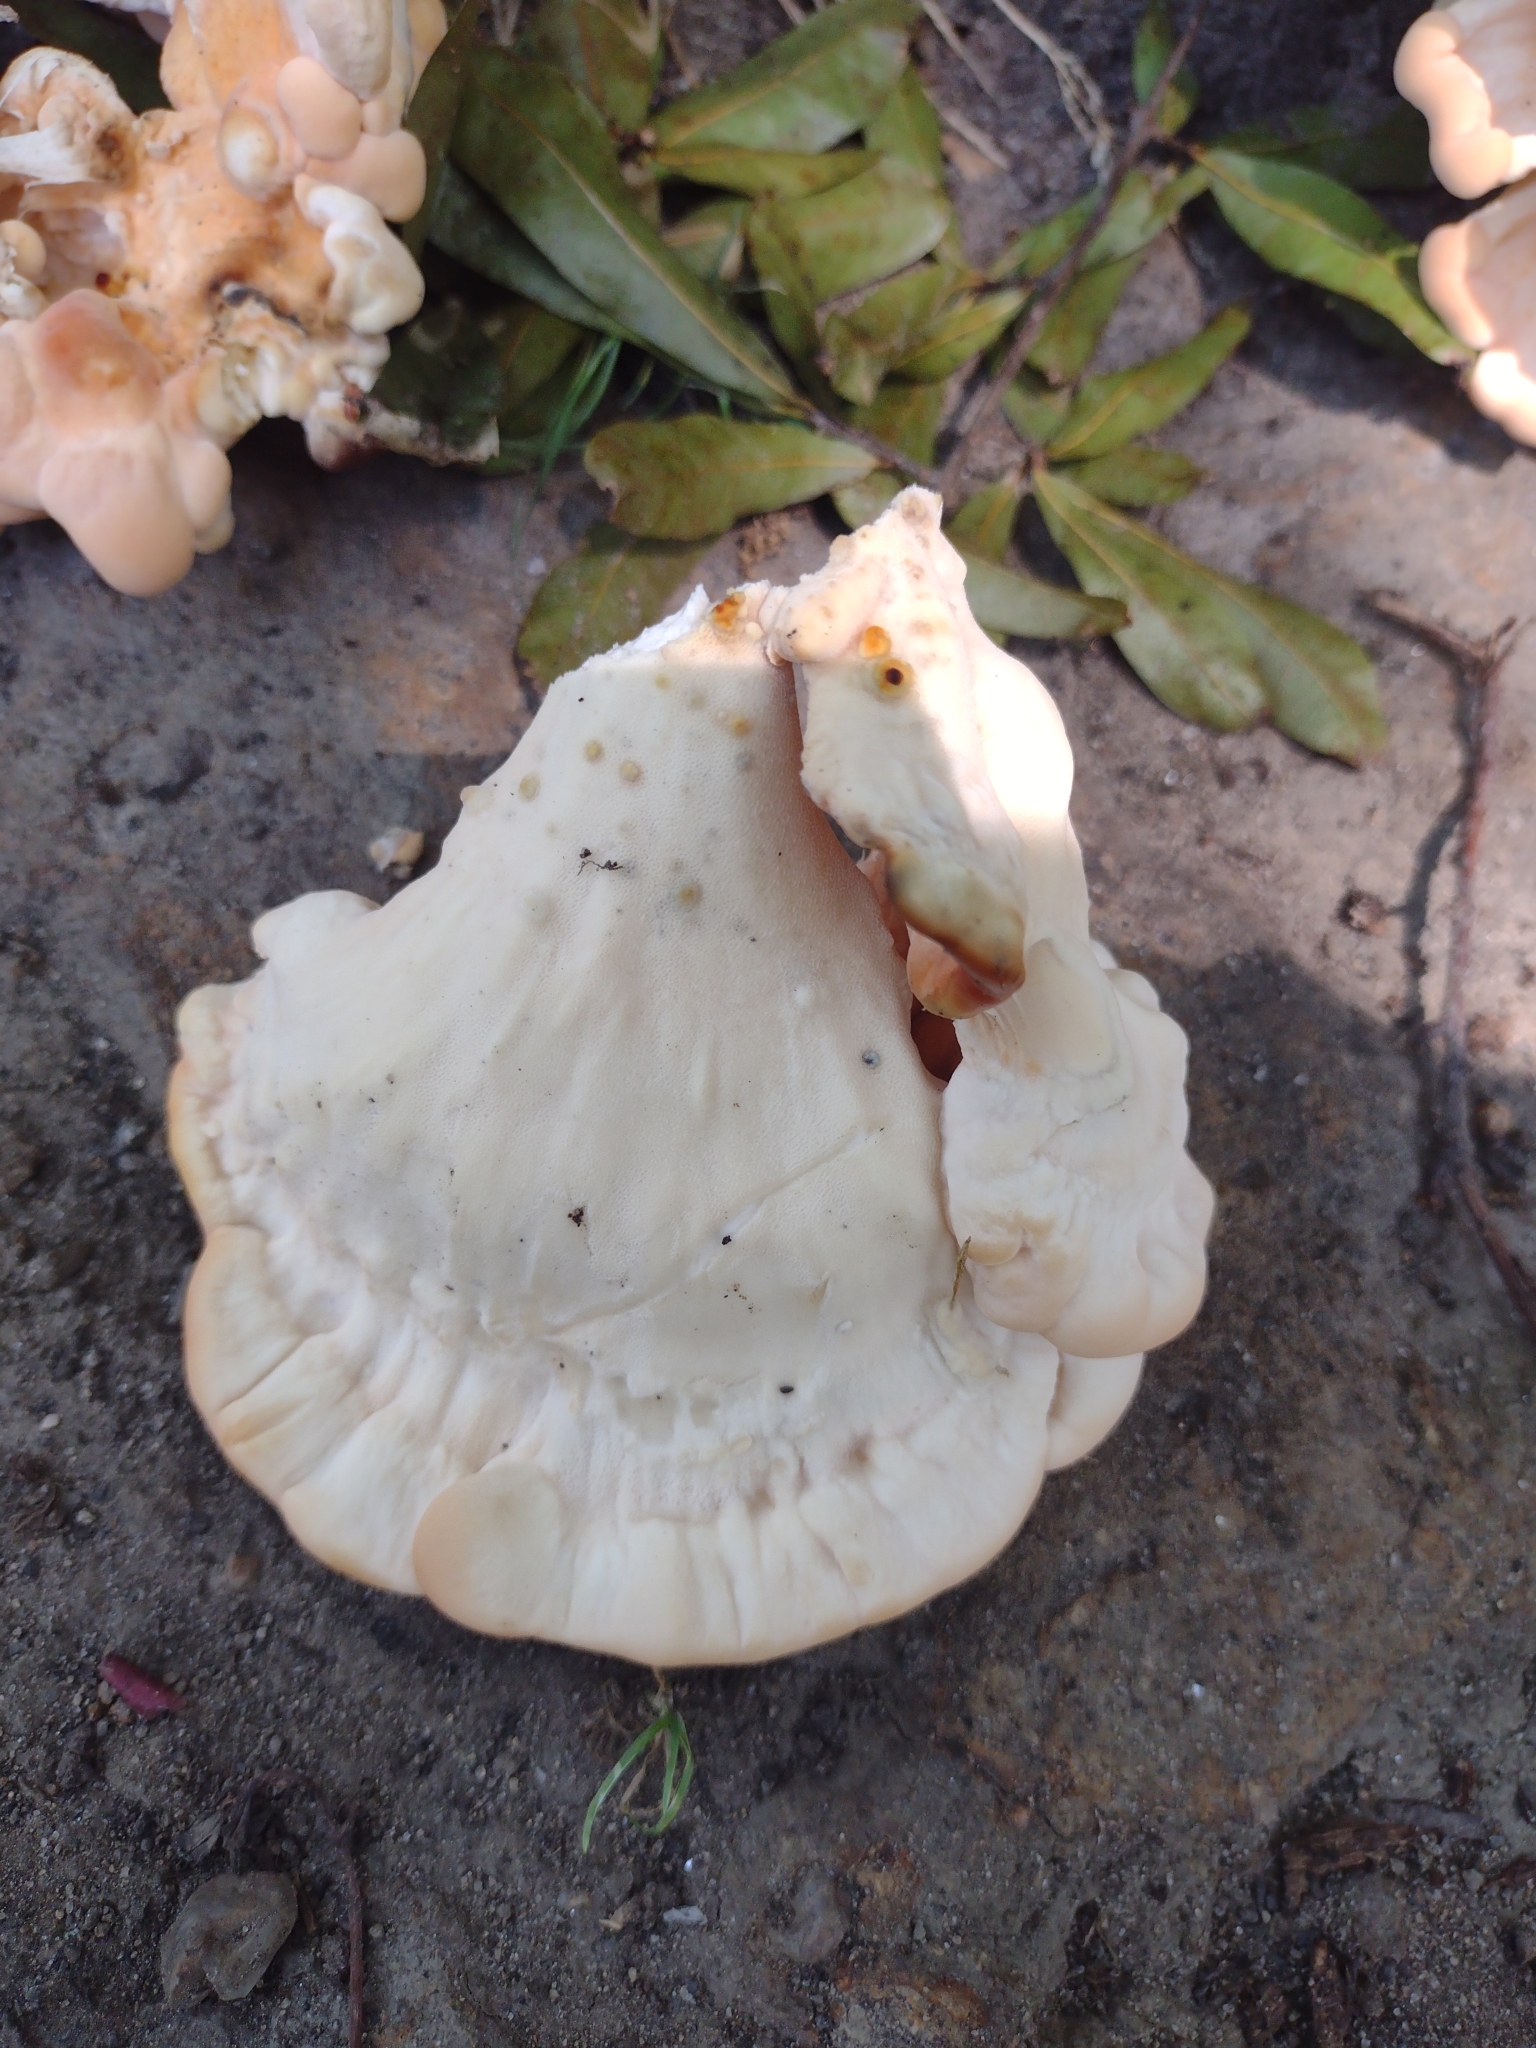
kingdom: Fungi
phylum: Basidiomycota
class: Agaricomycetes
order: Polyporales
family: Laetiporaceae
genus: Laetiporus
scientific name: Laetiporus sulphureus
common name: Chicken of the woods
